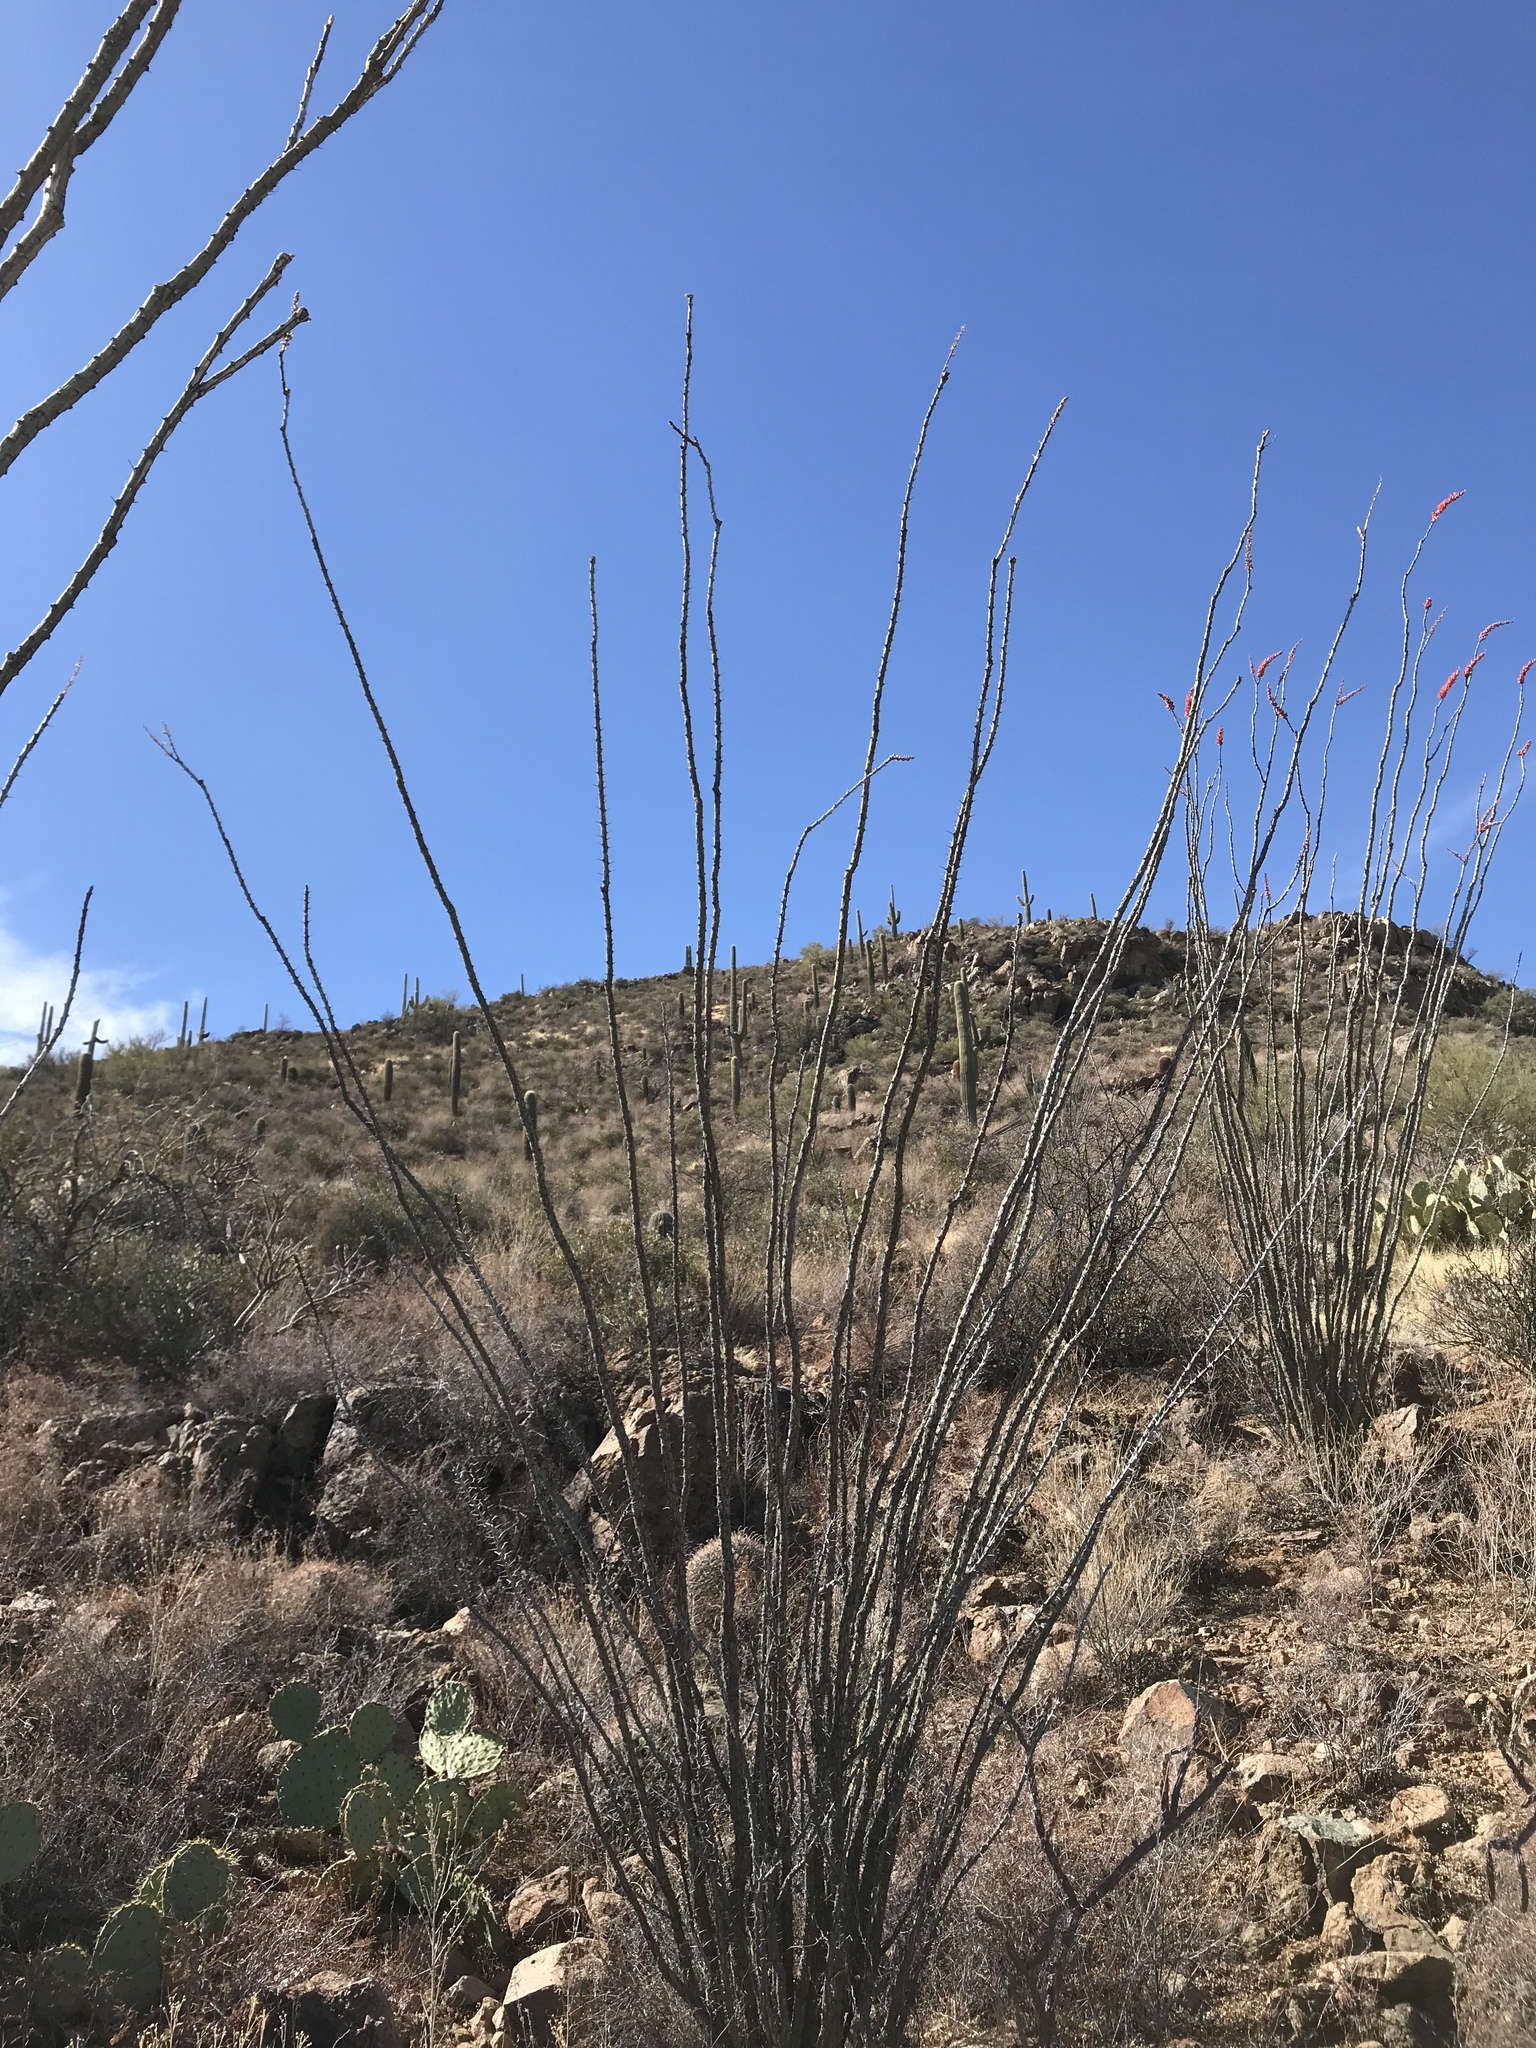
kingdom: Plantae
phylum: Tracheophyta
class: Magnoliopsida
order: Ericales
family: Fouquieriaceae
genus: Fouquieria
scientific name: Fouquieria splendens
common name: Vine-cactus
